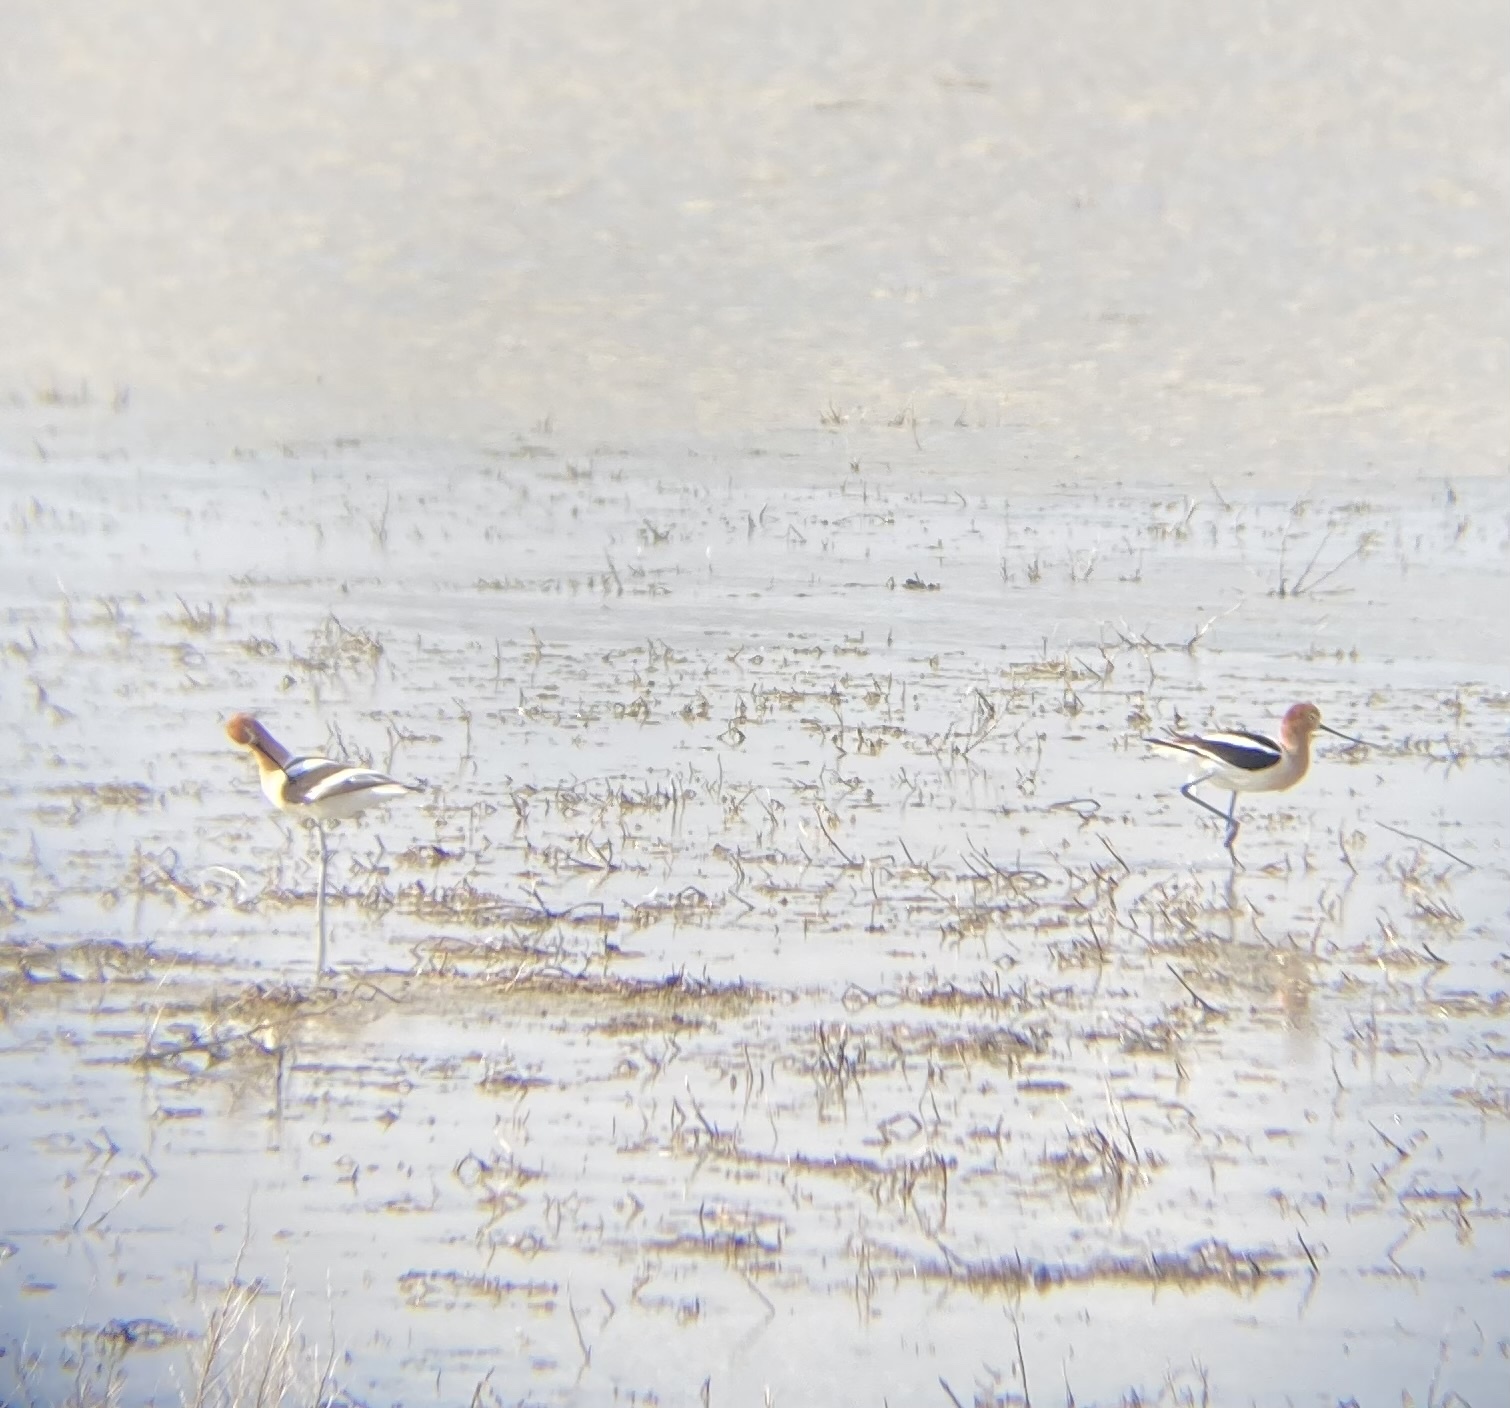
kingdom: Animalia
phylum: Chordata
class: Aves
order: Charadriiformes
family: Recurvirostridae
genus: Recurvirostra
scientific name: Recurvirostra americana
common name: American avocet
